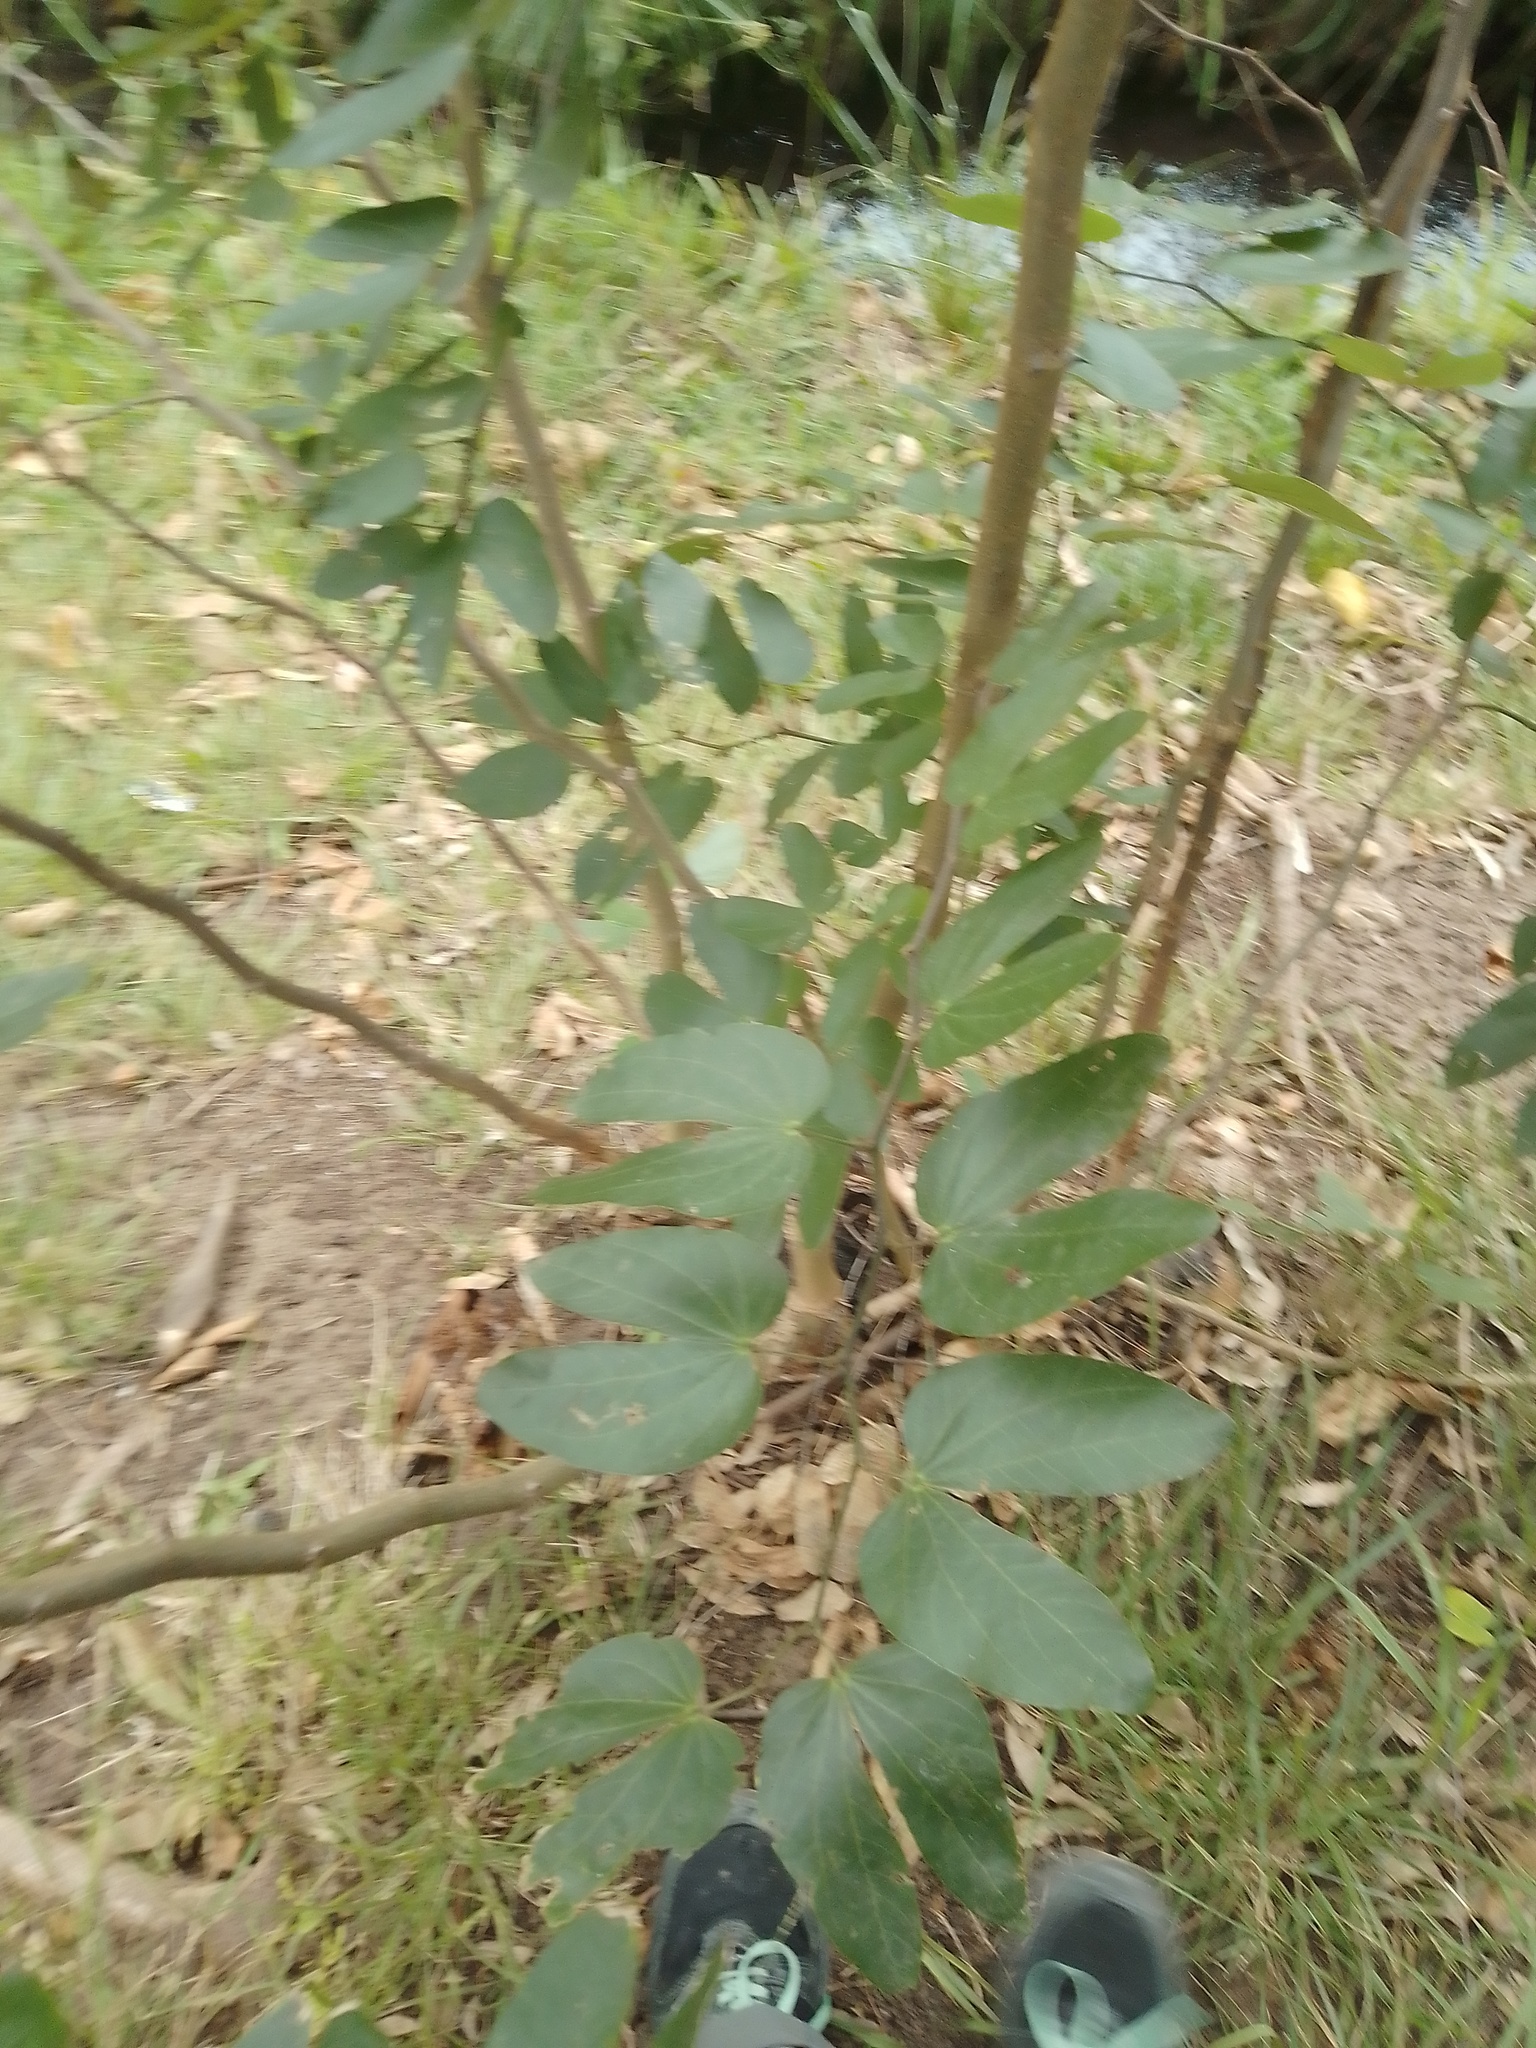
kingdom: Plantae
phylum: Tracheophyta
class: Magnoliopsida
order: Fabales
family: Fabaceae
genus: Bauhinia
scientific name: Bauhinia forficata
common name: Orchid tree
